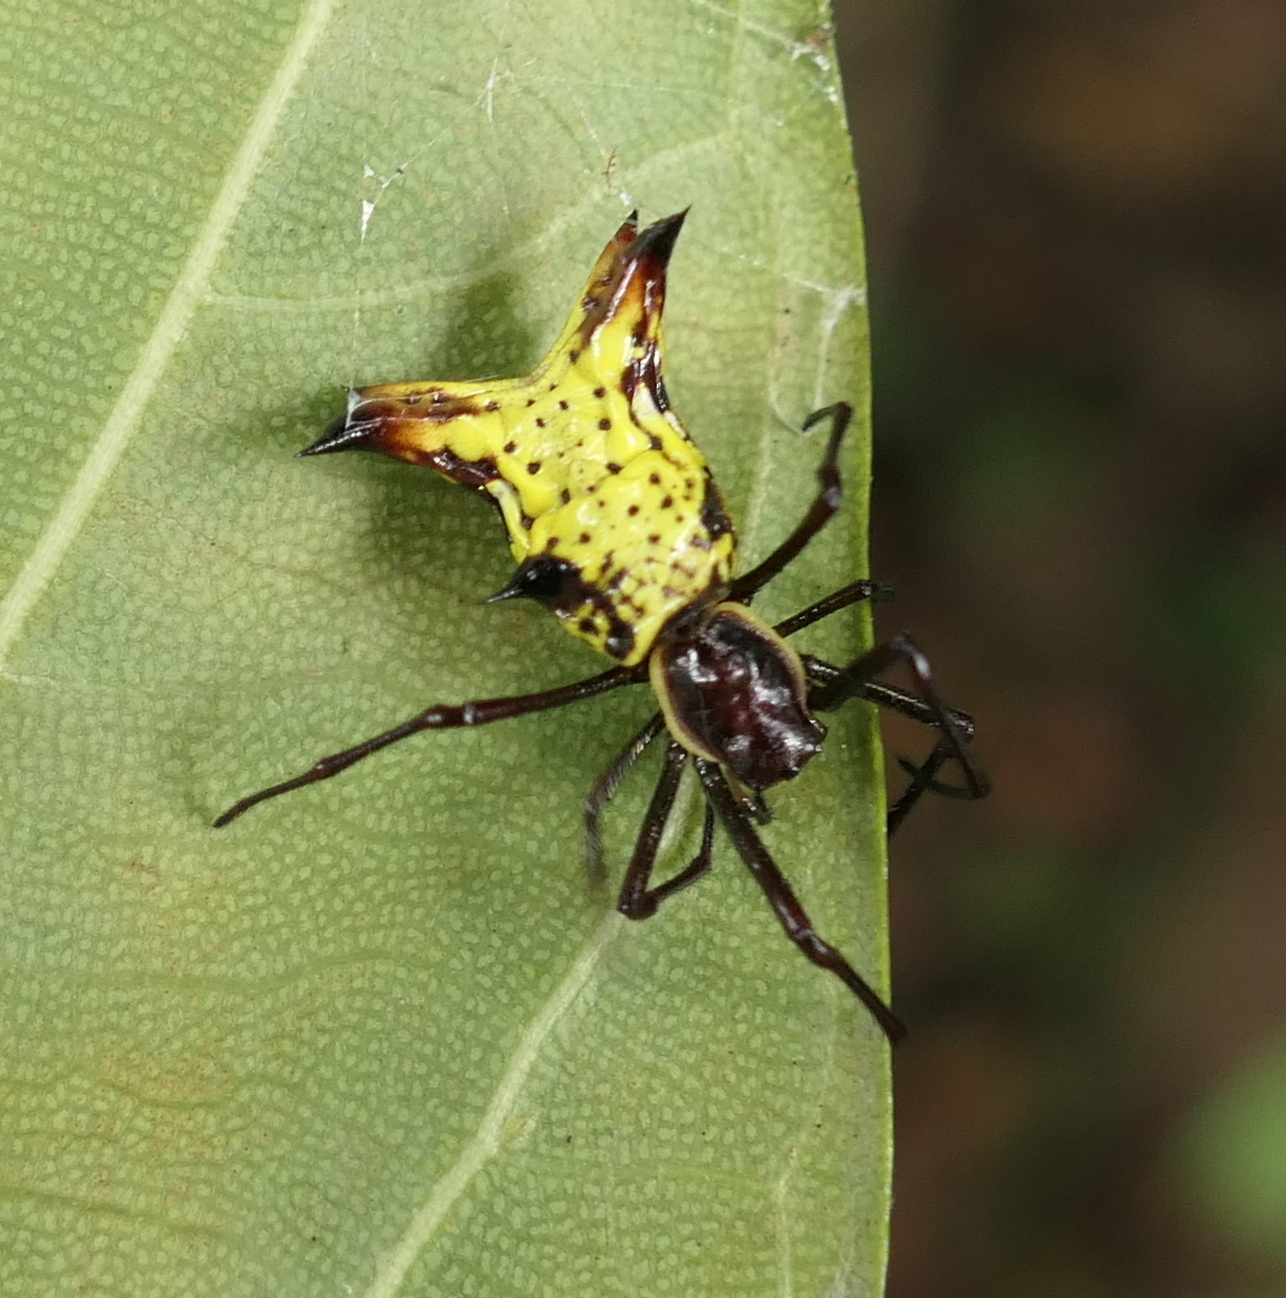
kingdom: Animalia
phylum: Arthropoda
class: Arachnida
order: Araneae
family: Araneidae
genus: Micrathena
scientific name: Micrathena fissispina
